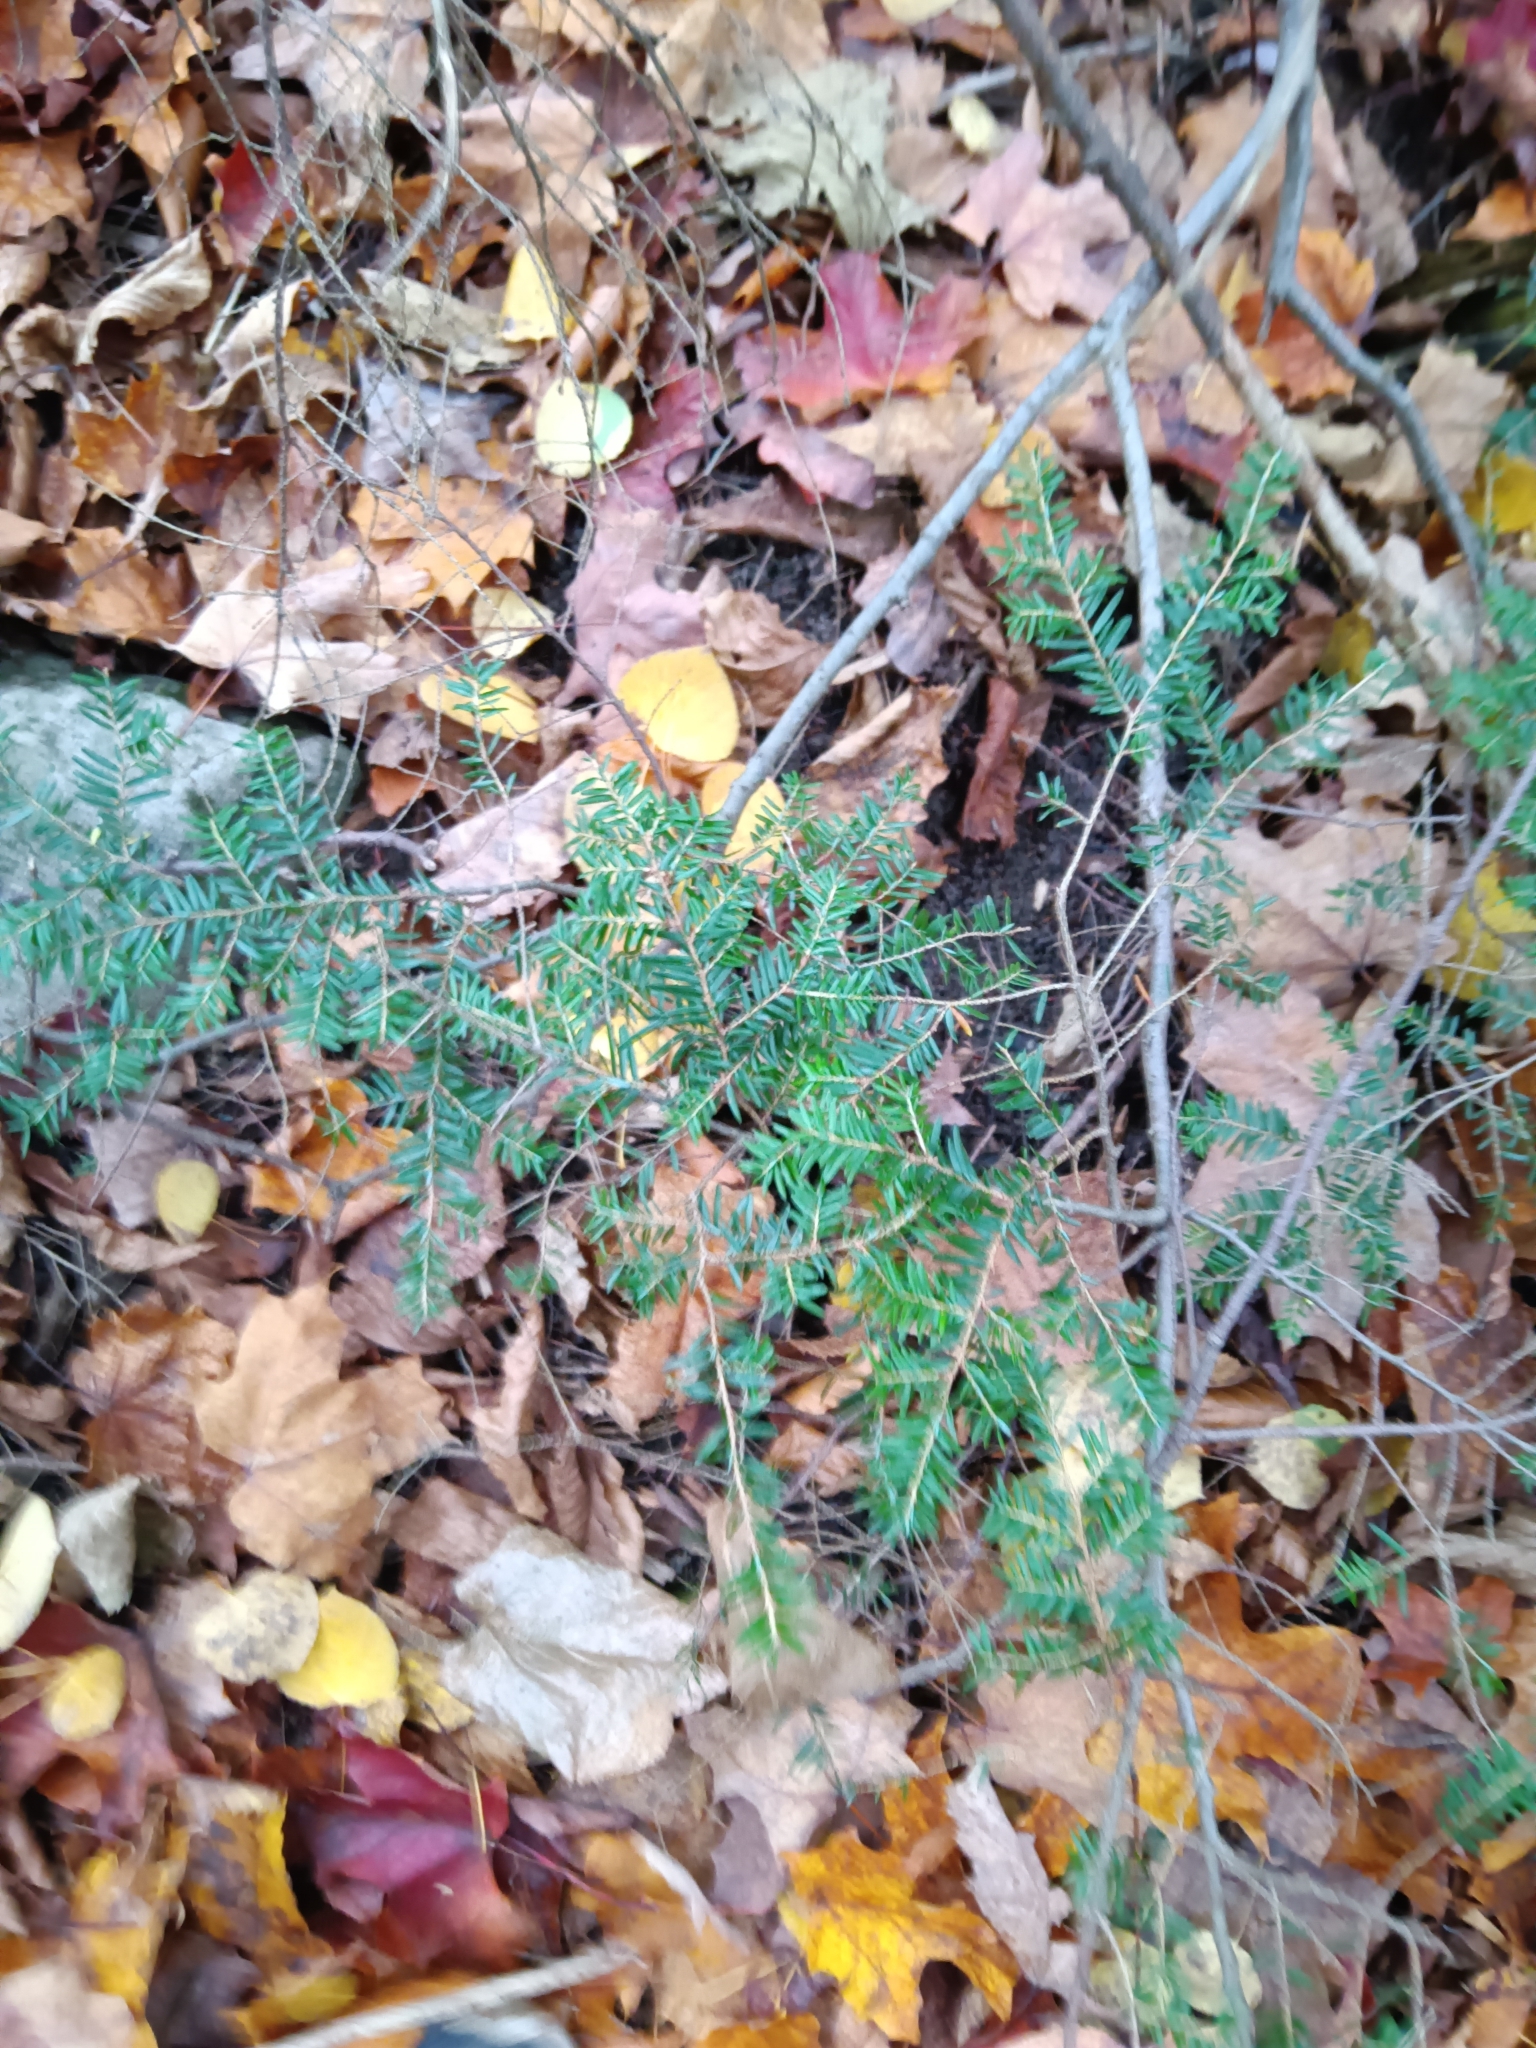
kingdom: Plantae
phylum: Tracheophyta
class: Pinopsida
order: Pinales
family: Pinaceae
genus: Tsuga
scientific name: Tsuga canadensis
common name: Eastern hemlock
